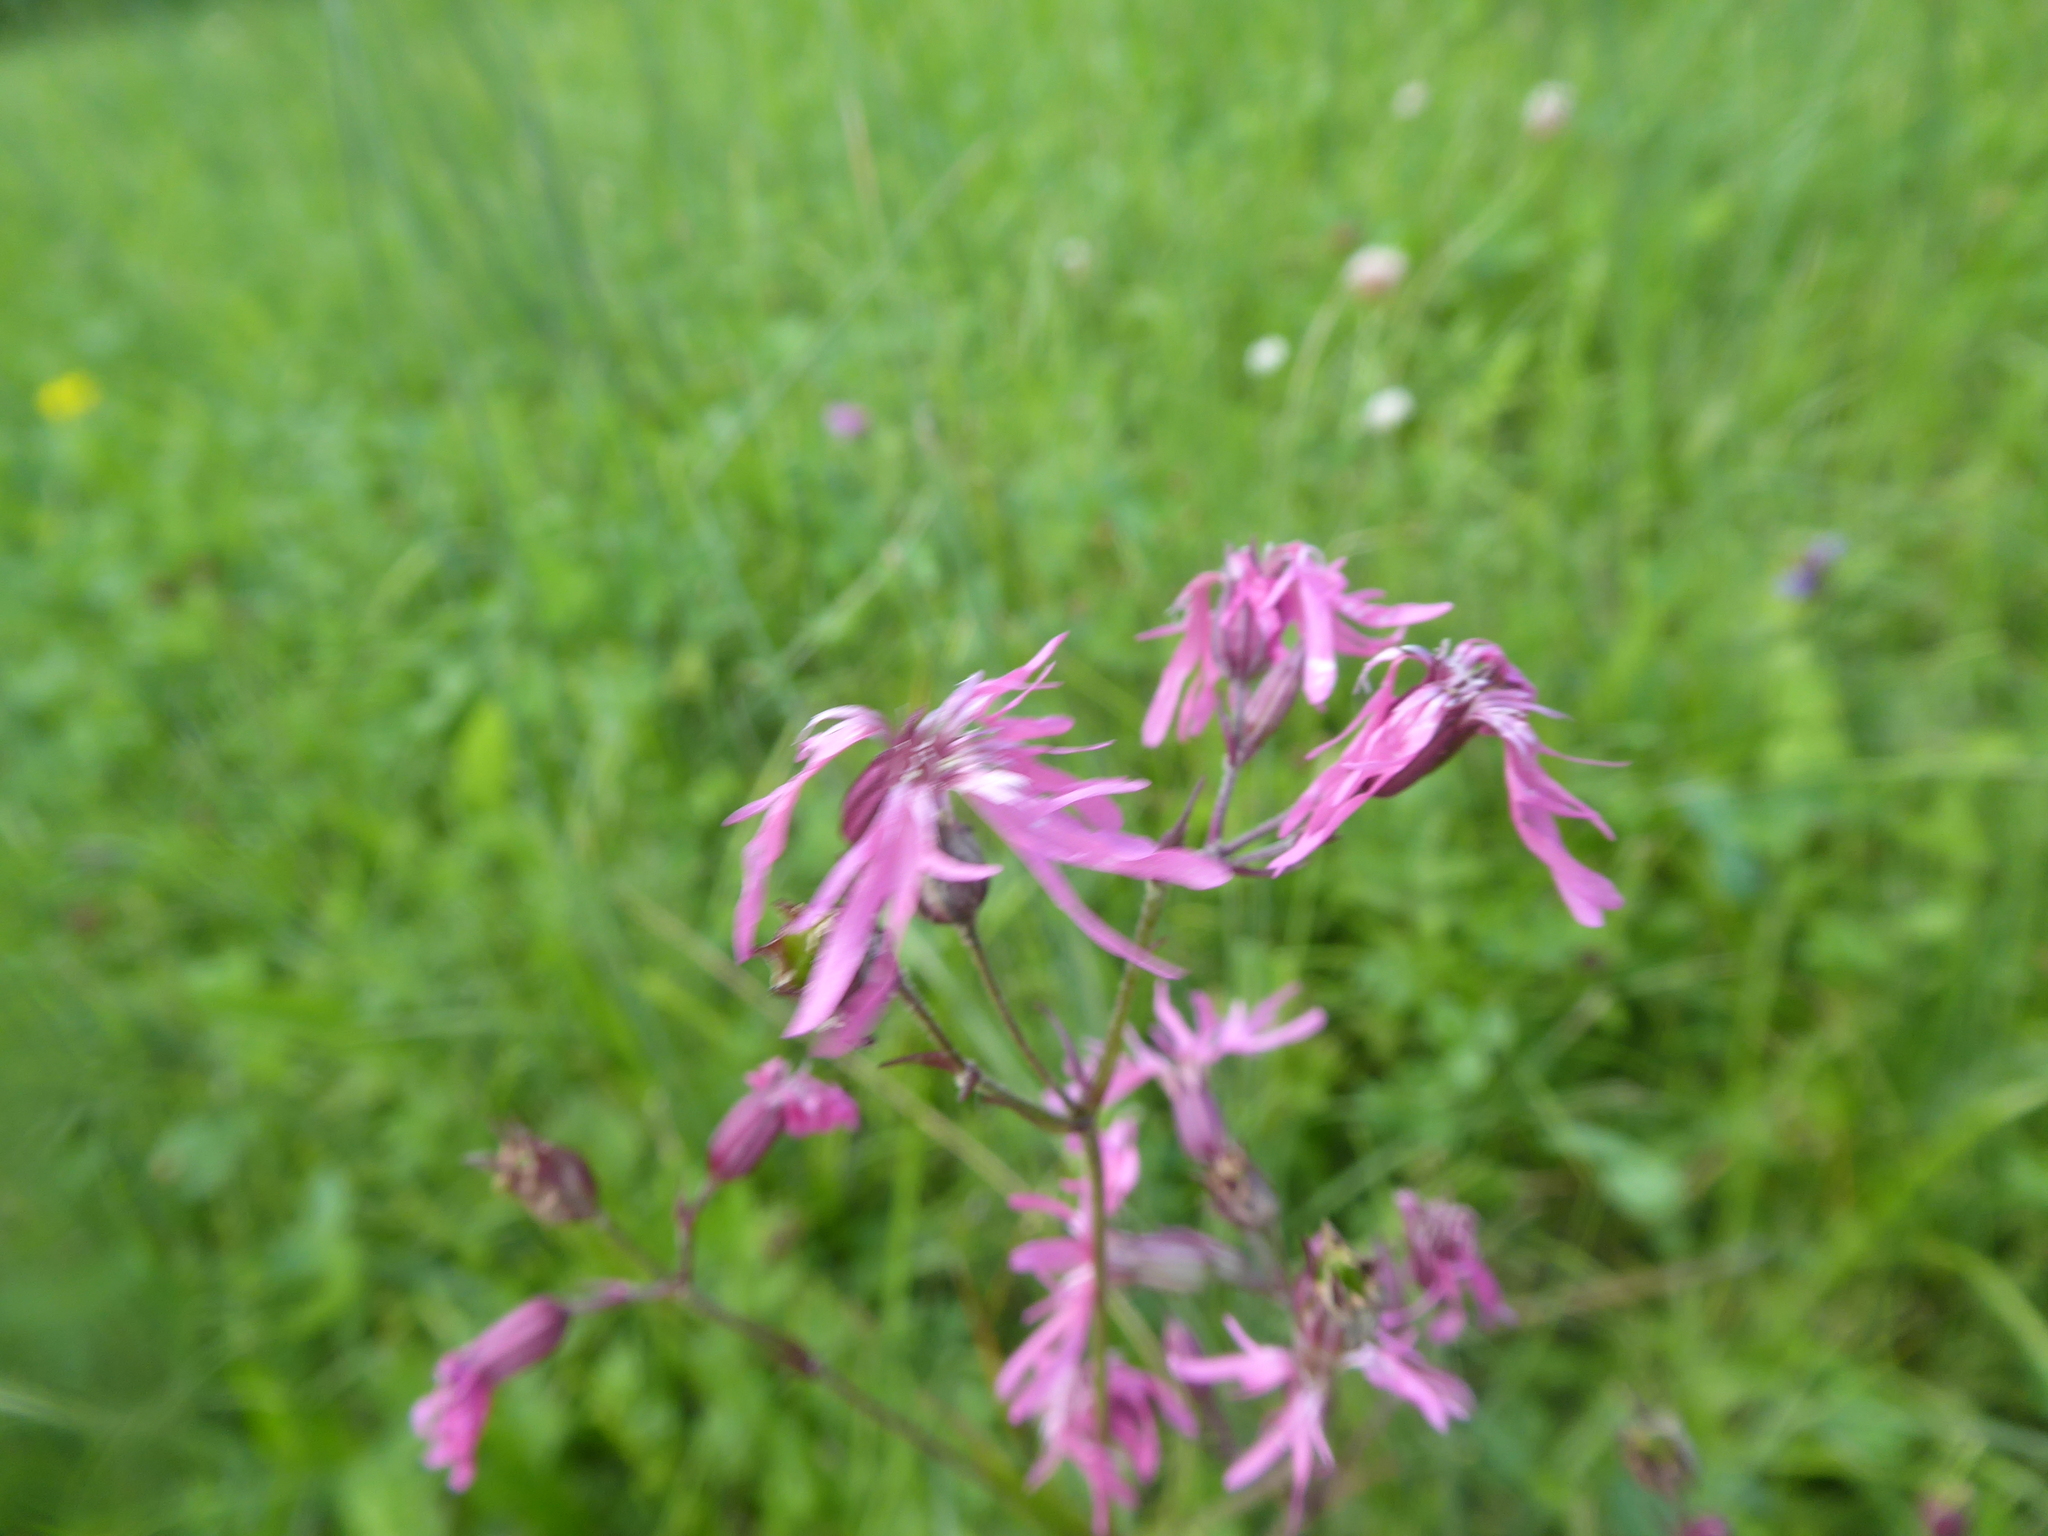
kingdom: Plantae
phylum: Tracheophyta
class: Magnoliopsida
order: Caryophyllales
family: Caryophyllaceae
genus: Silene
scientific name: Silene flos-cuculi
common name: Ragged-robin
